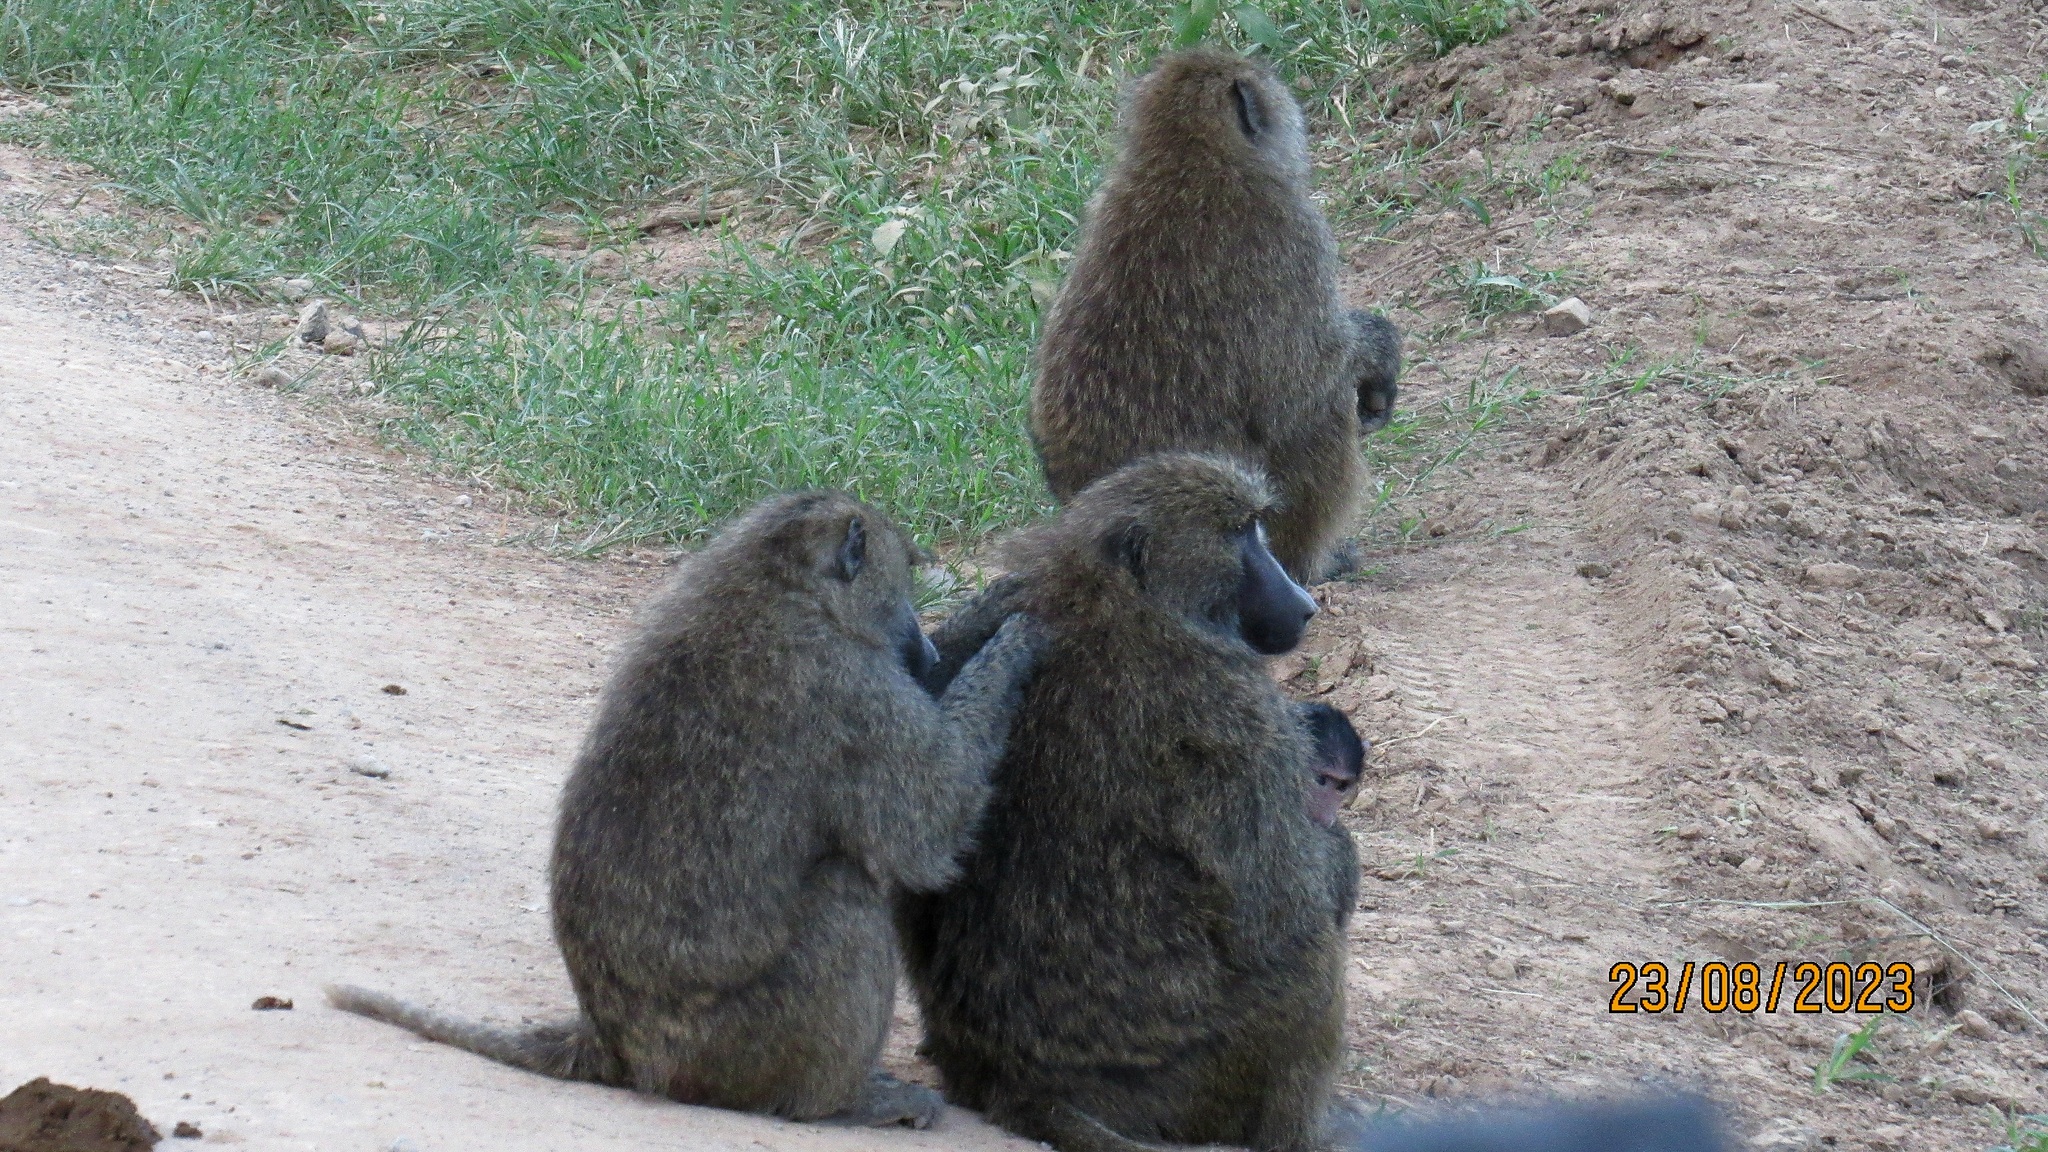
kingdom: Animalia
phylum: Chordata
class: Mammalia
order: Primates
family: Cercopithecidae
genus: Papio
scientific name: Papio anubis
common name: Olive baboon
